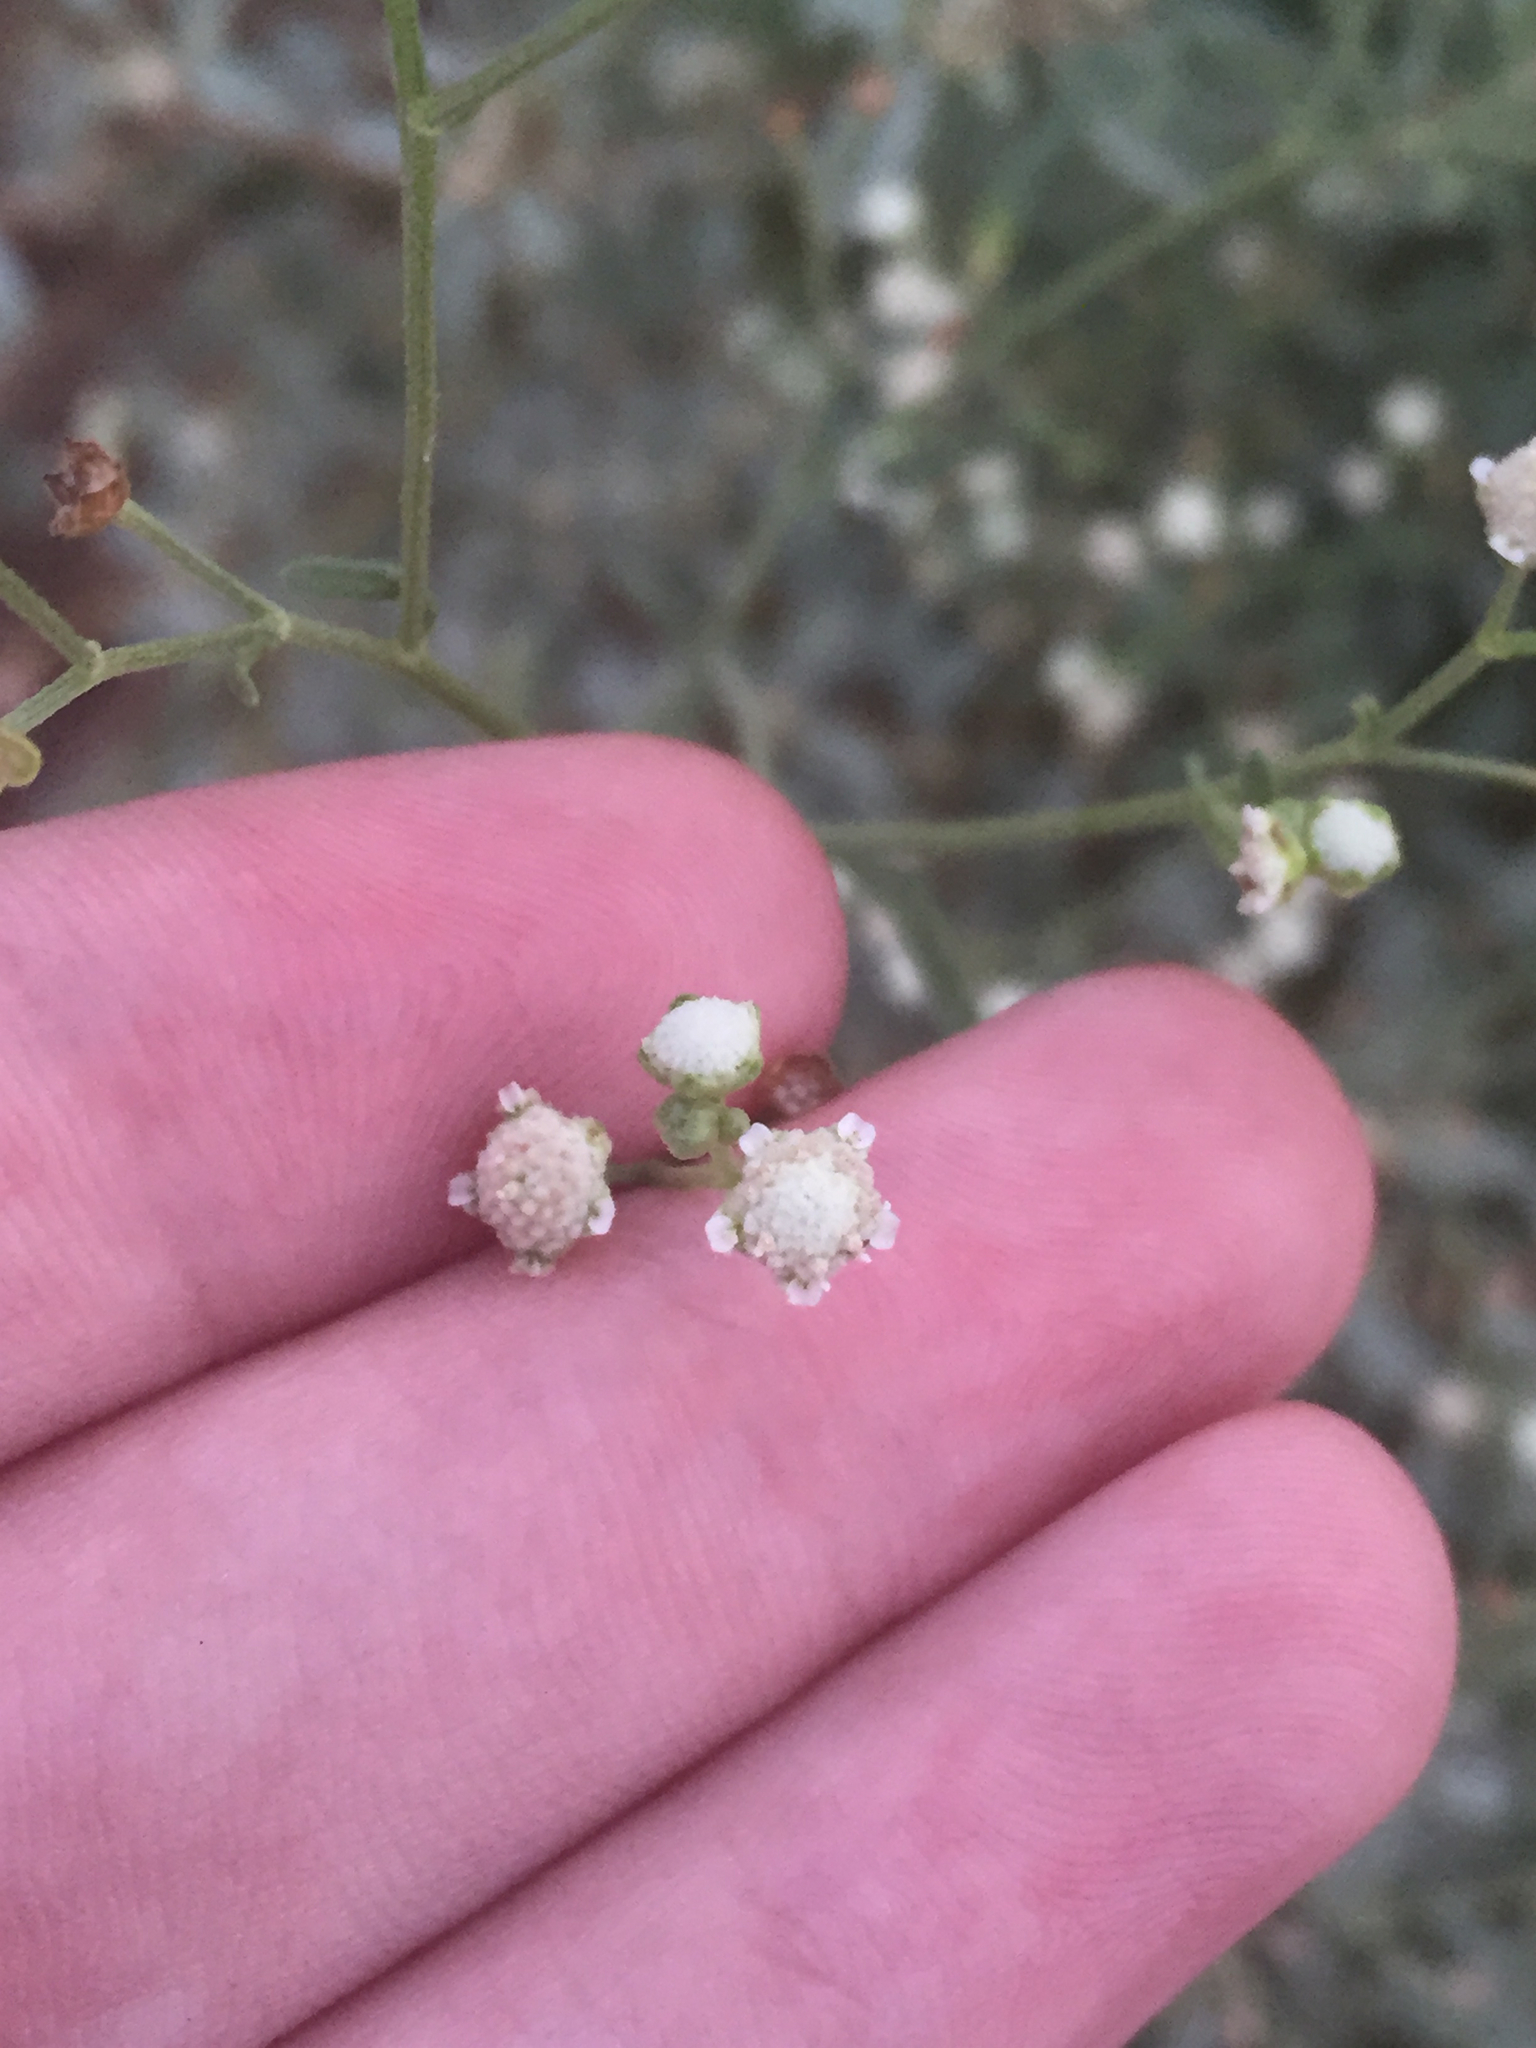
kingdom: Plantae
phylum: Tracheophyta
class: Magnoliopsida
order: Asterales
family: Asteraceae
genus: Parthenium
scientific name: Parthenium hysterophorus
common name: Santa maria feverfew
